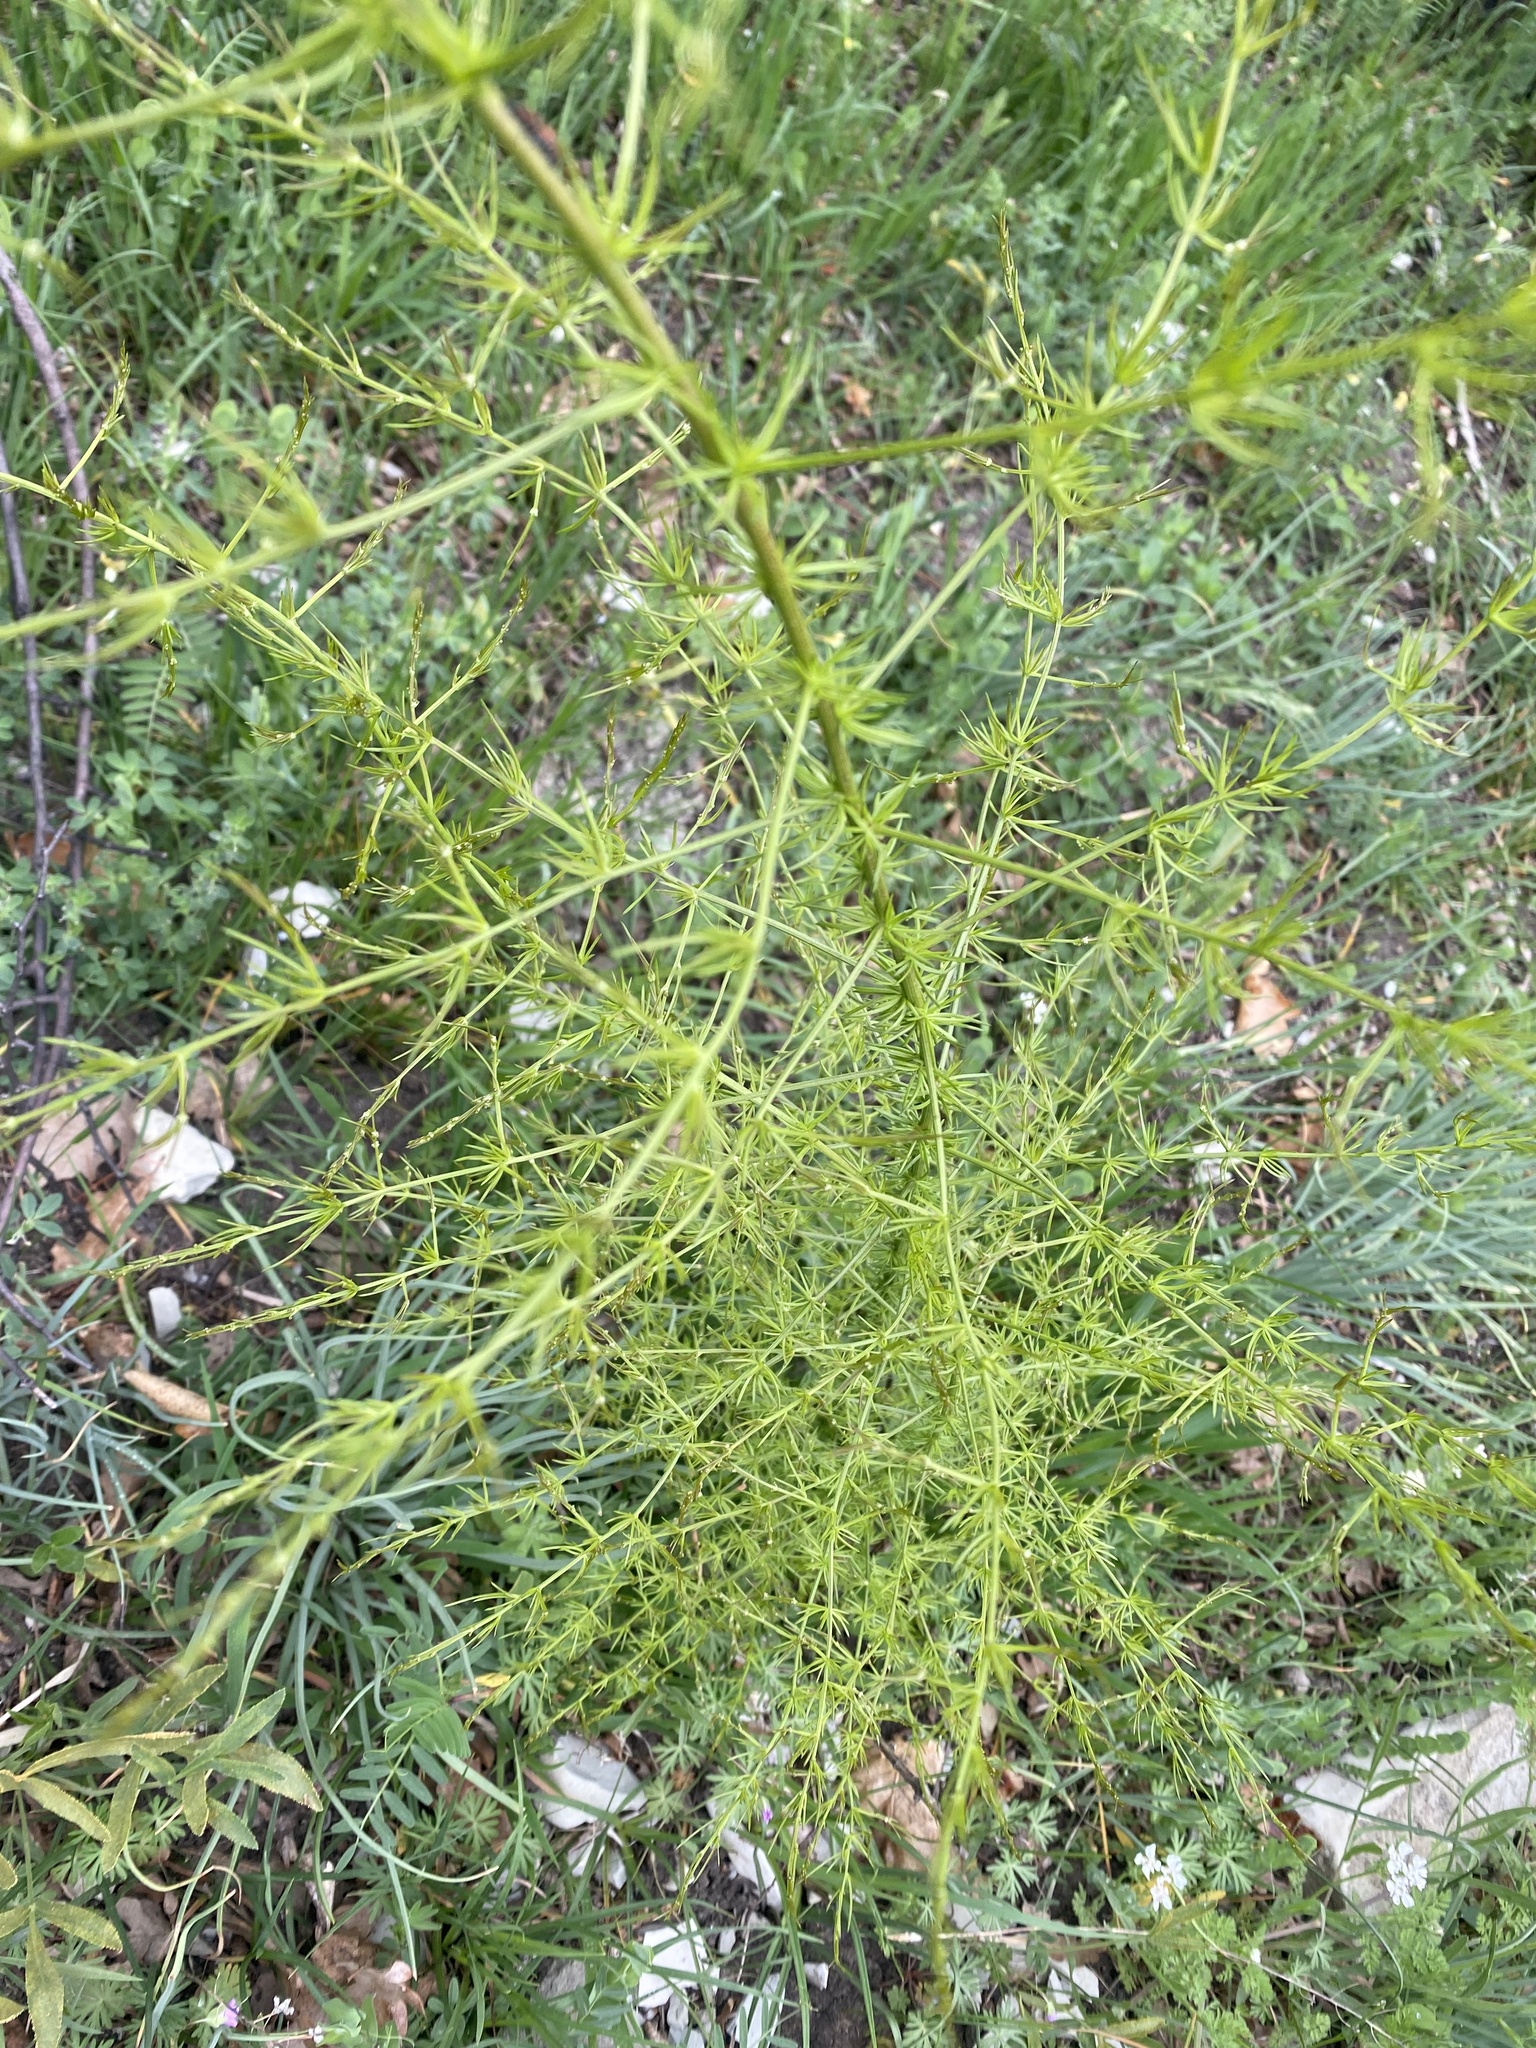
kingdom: Plantae
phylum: Tracheophyta
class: Liliopsida
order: Asparagales
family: Asparagaceae
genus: Asparagus
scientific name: Asparagus verticillatus
